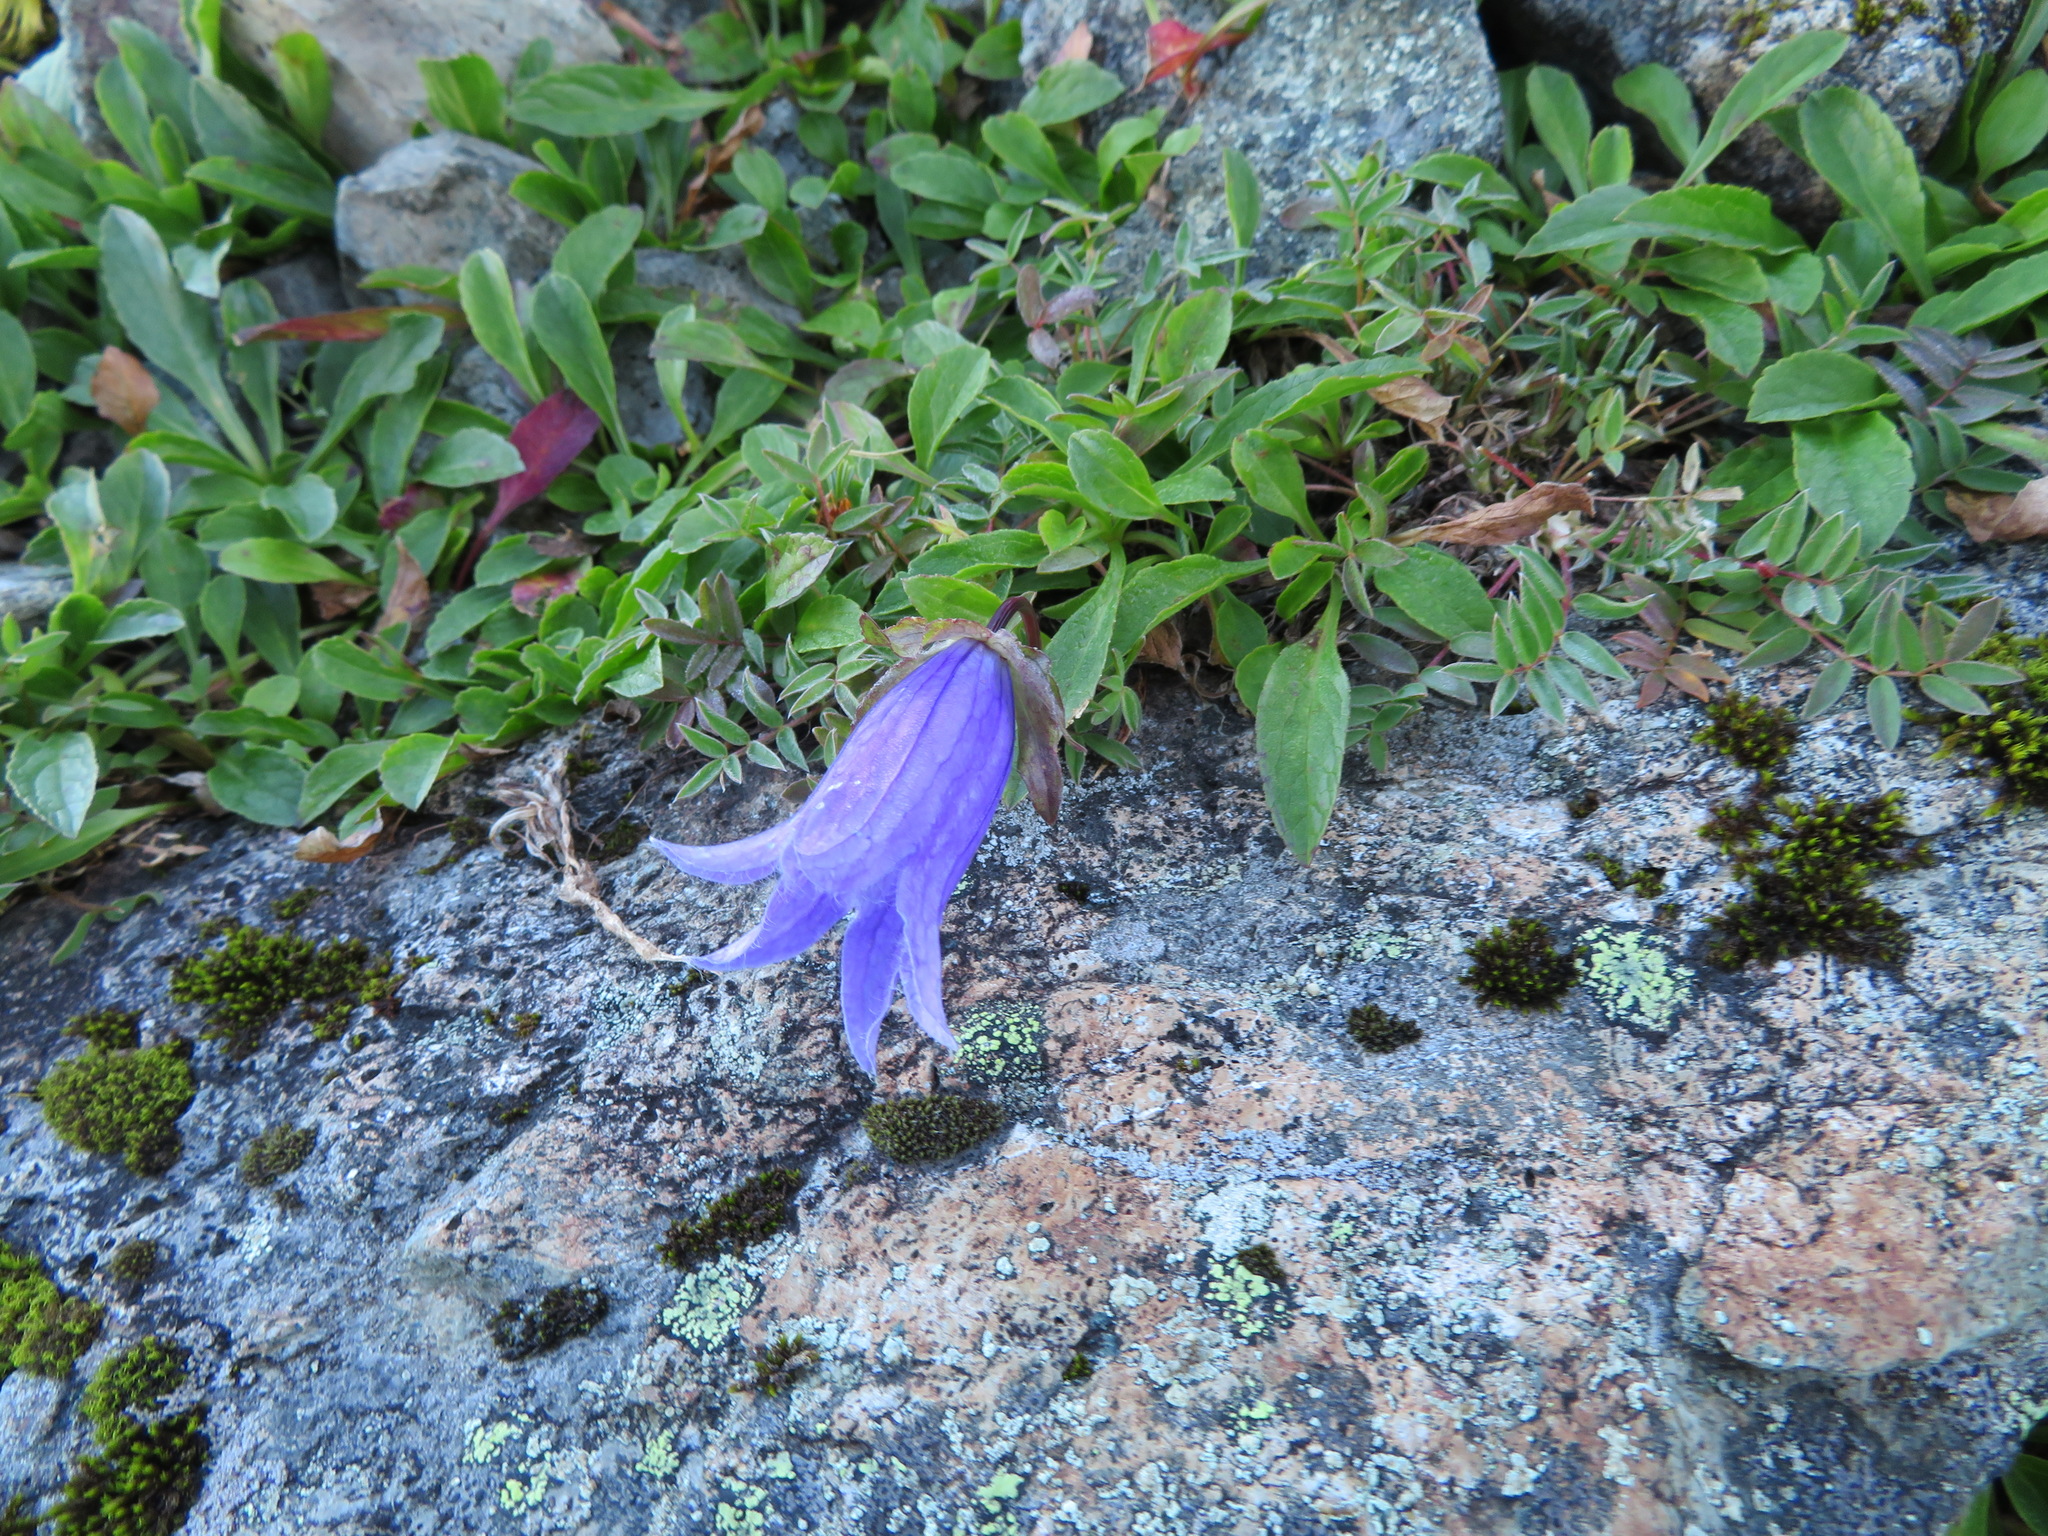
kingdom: Plantae
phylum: Tracheophyta
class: Magnoliopsida
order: Asterales
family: Campanulaceae
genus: Campanula
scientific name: Campanula dasyantha
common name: Hairyflower bellflower
